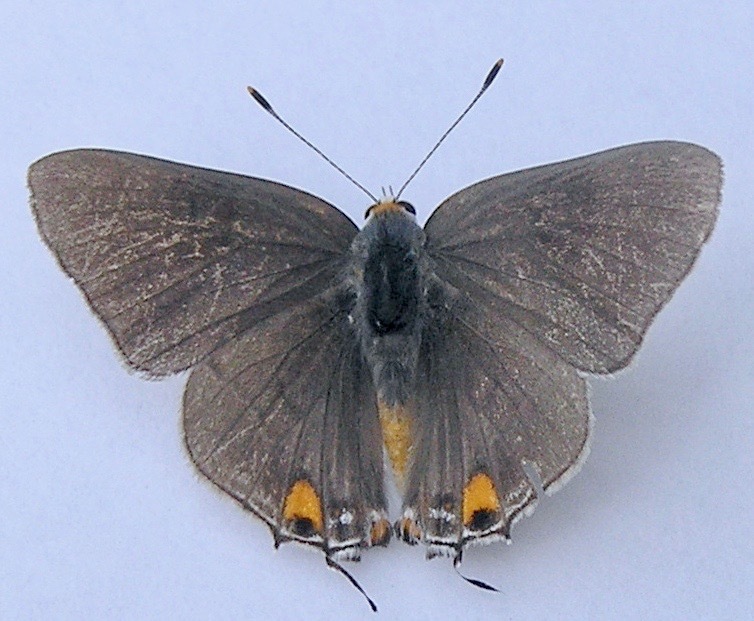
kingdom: Animalia
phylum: Arthropoda
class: Insecta
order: Lepidoptera
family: Lycaenidae
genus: Strymon
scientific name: Strymon melinus
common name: Gray hairstreak
